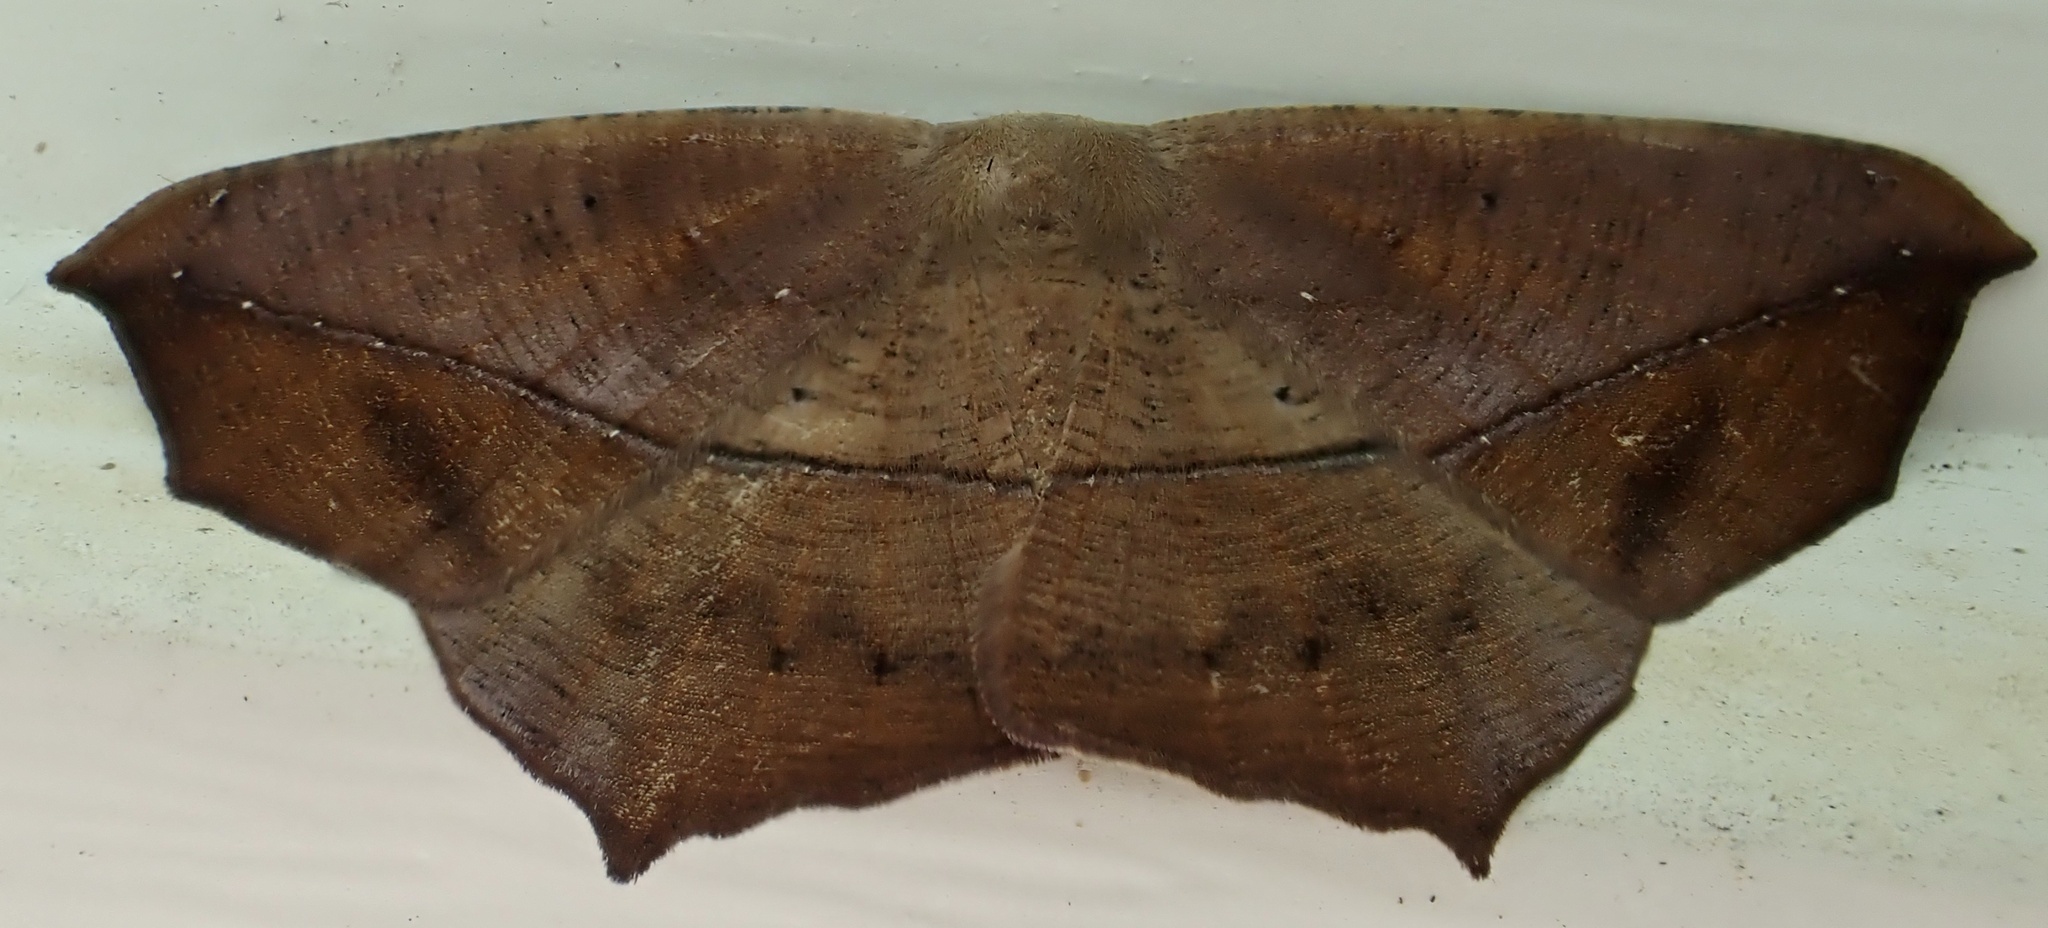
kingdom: Animalia
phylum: Arthropoda
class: Insecta
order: Lepidoptera
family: Geometridae
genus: Prochoerodes
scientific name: Prochoerodes lineola
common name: Large maple spanworm
